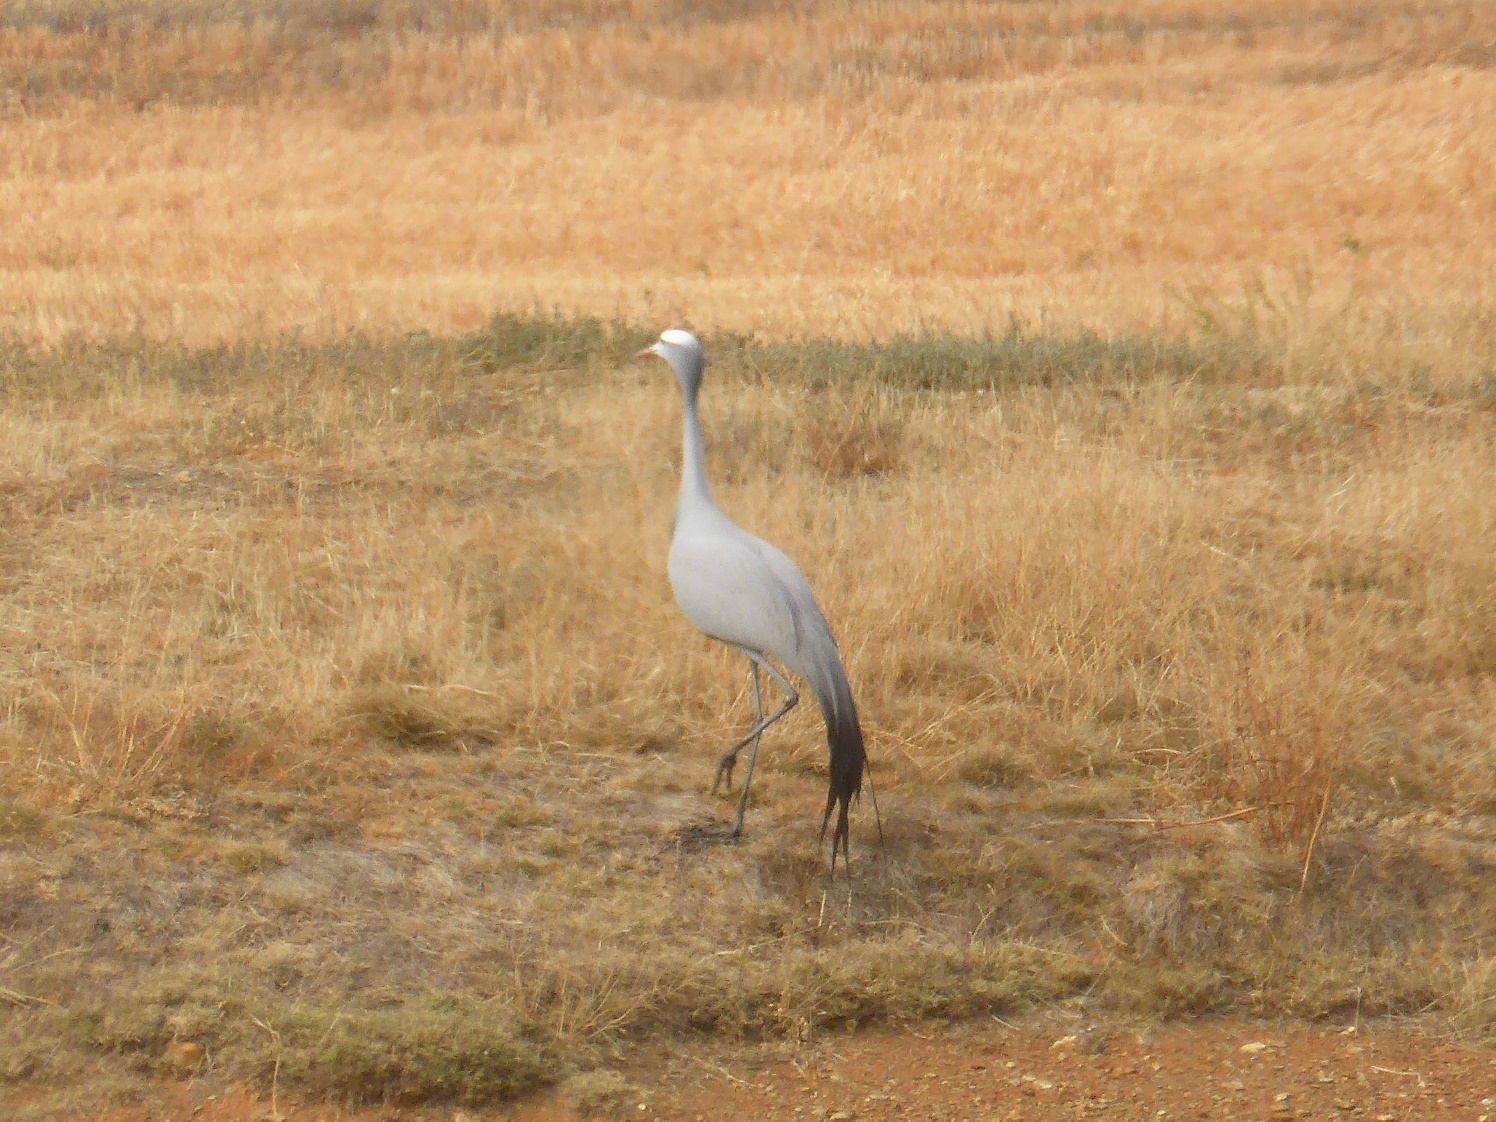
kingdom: Animalia
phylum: Chordata
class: Aves
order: Gruiformes
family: Gruidae
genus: Anthropoides
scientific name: Anthropoides paradiseus
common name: Blue crane
